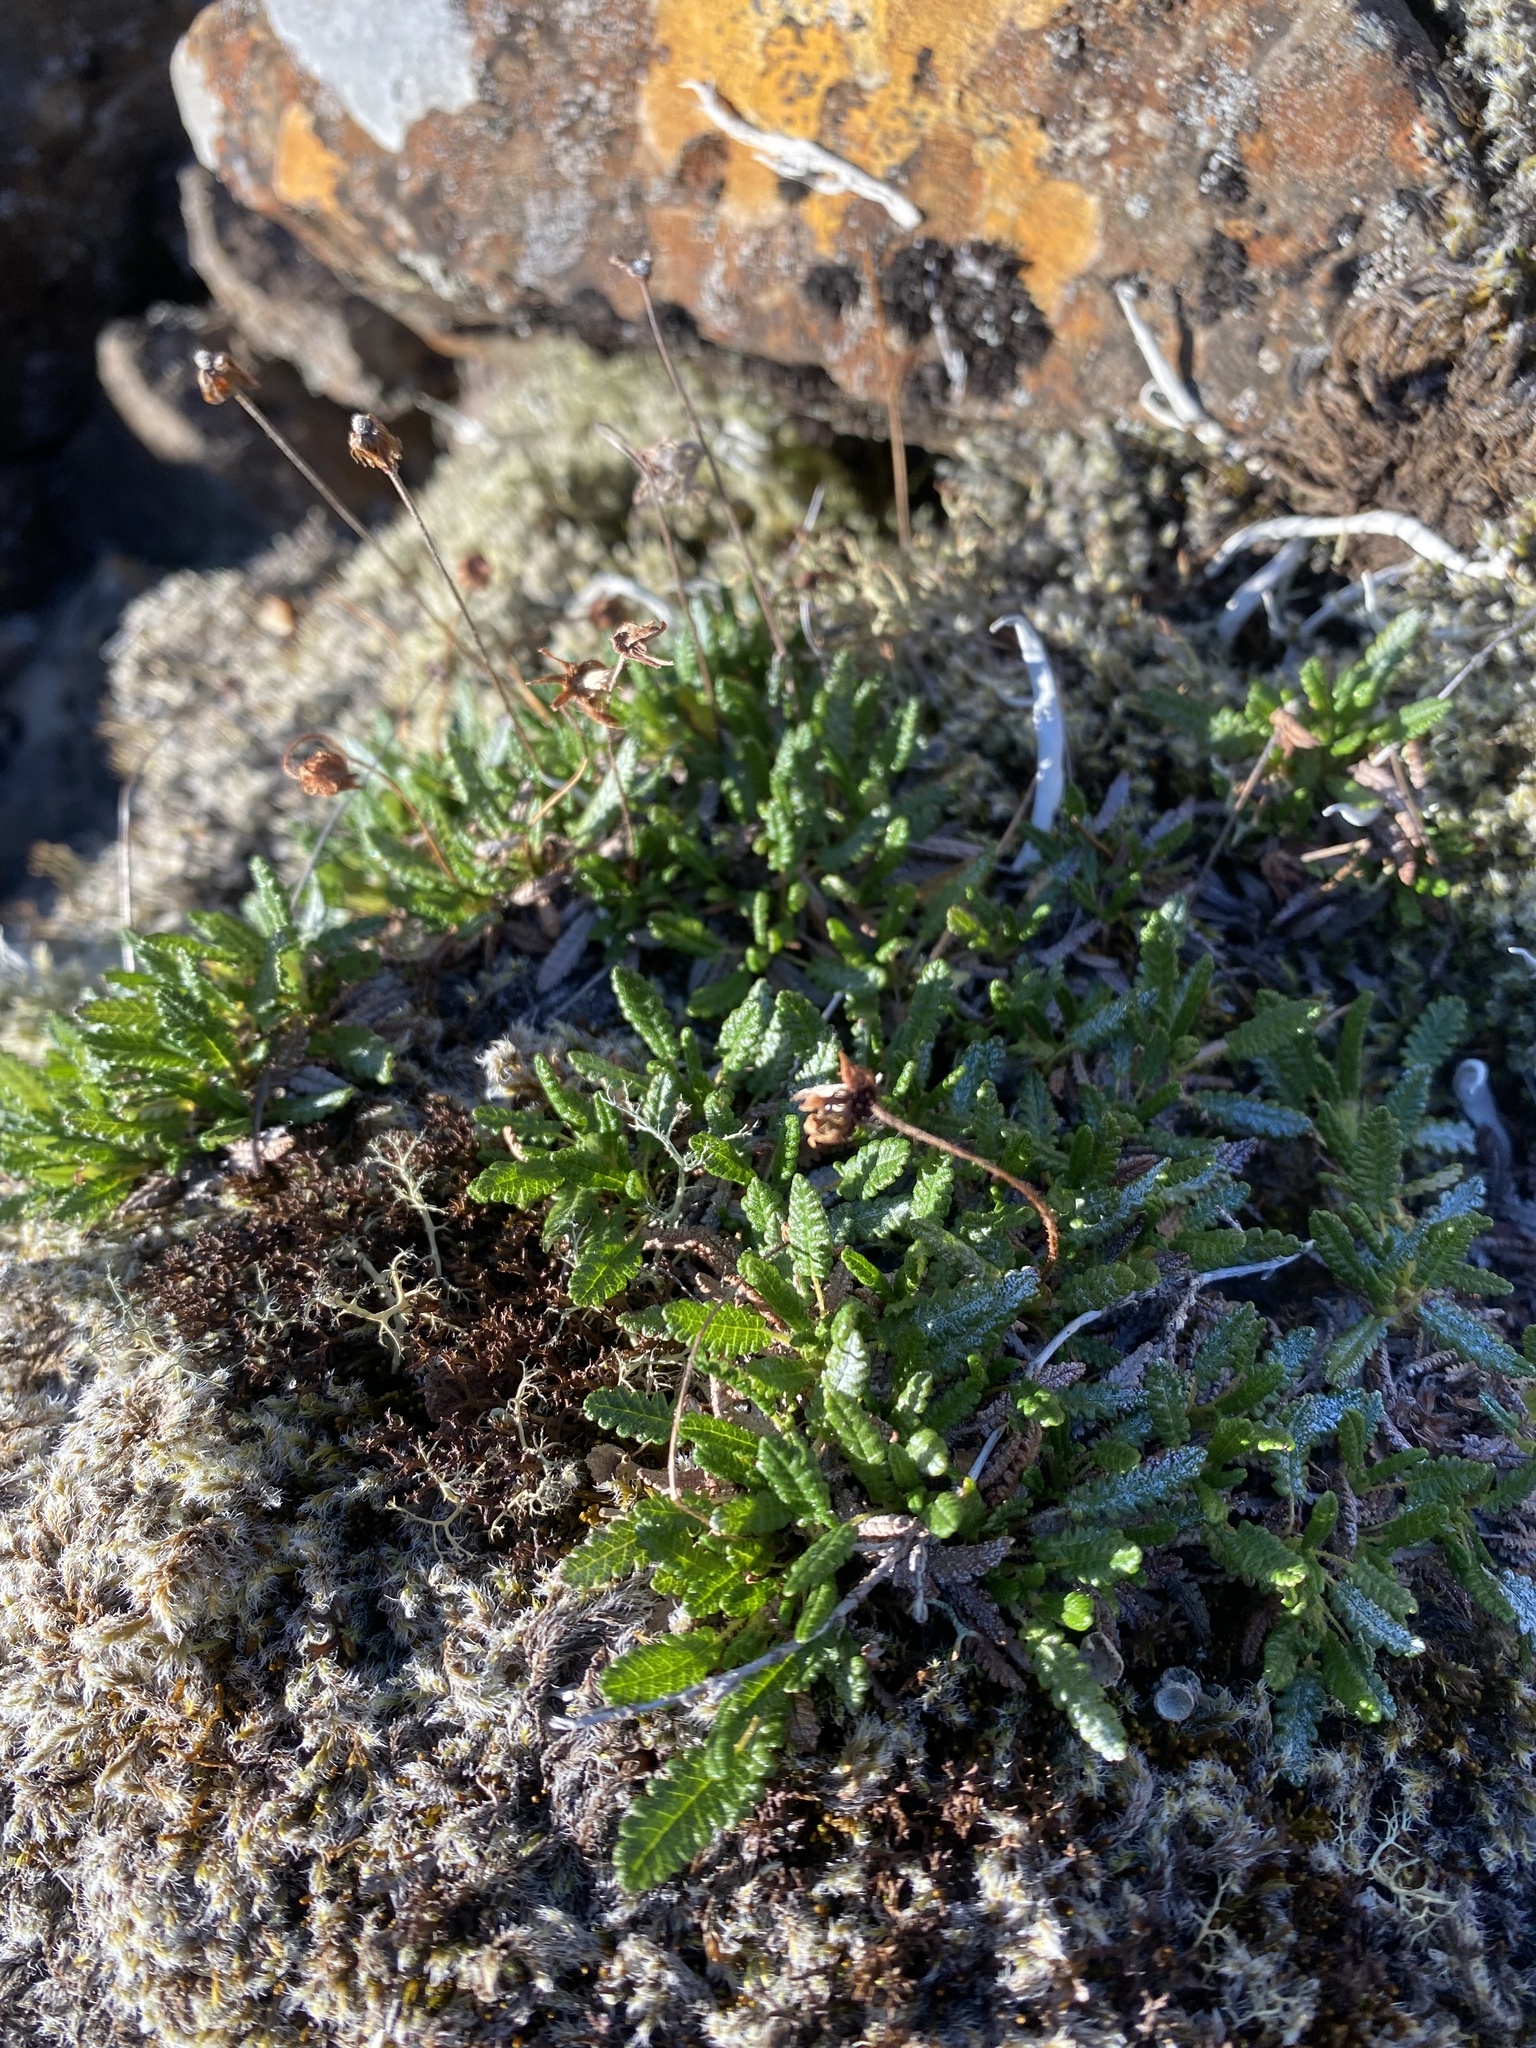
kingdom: Plantae
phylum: Tracheophyta
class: Magnoliopsida
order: Rosales
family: Rosaceae
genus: Dryas
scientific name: Dryas octopetala
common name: Eight-petal mountain-avens
